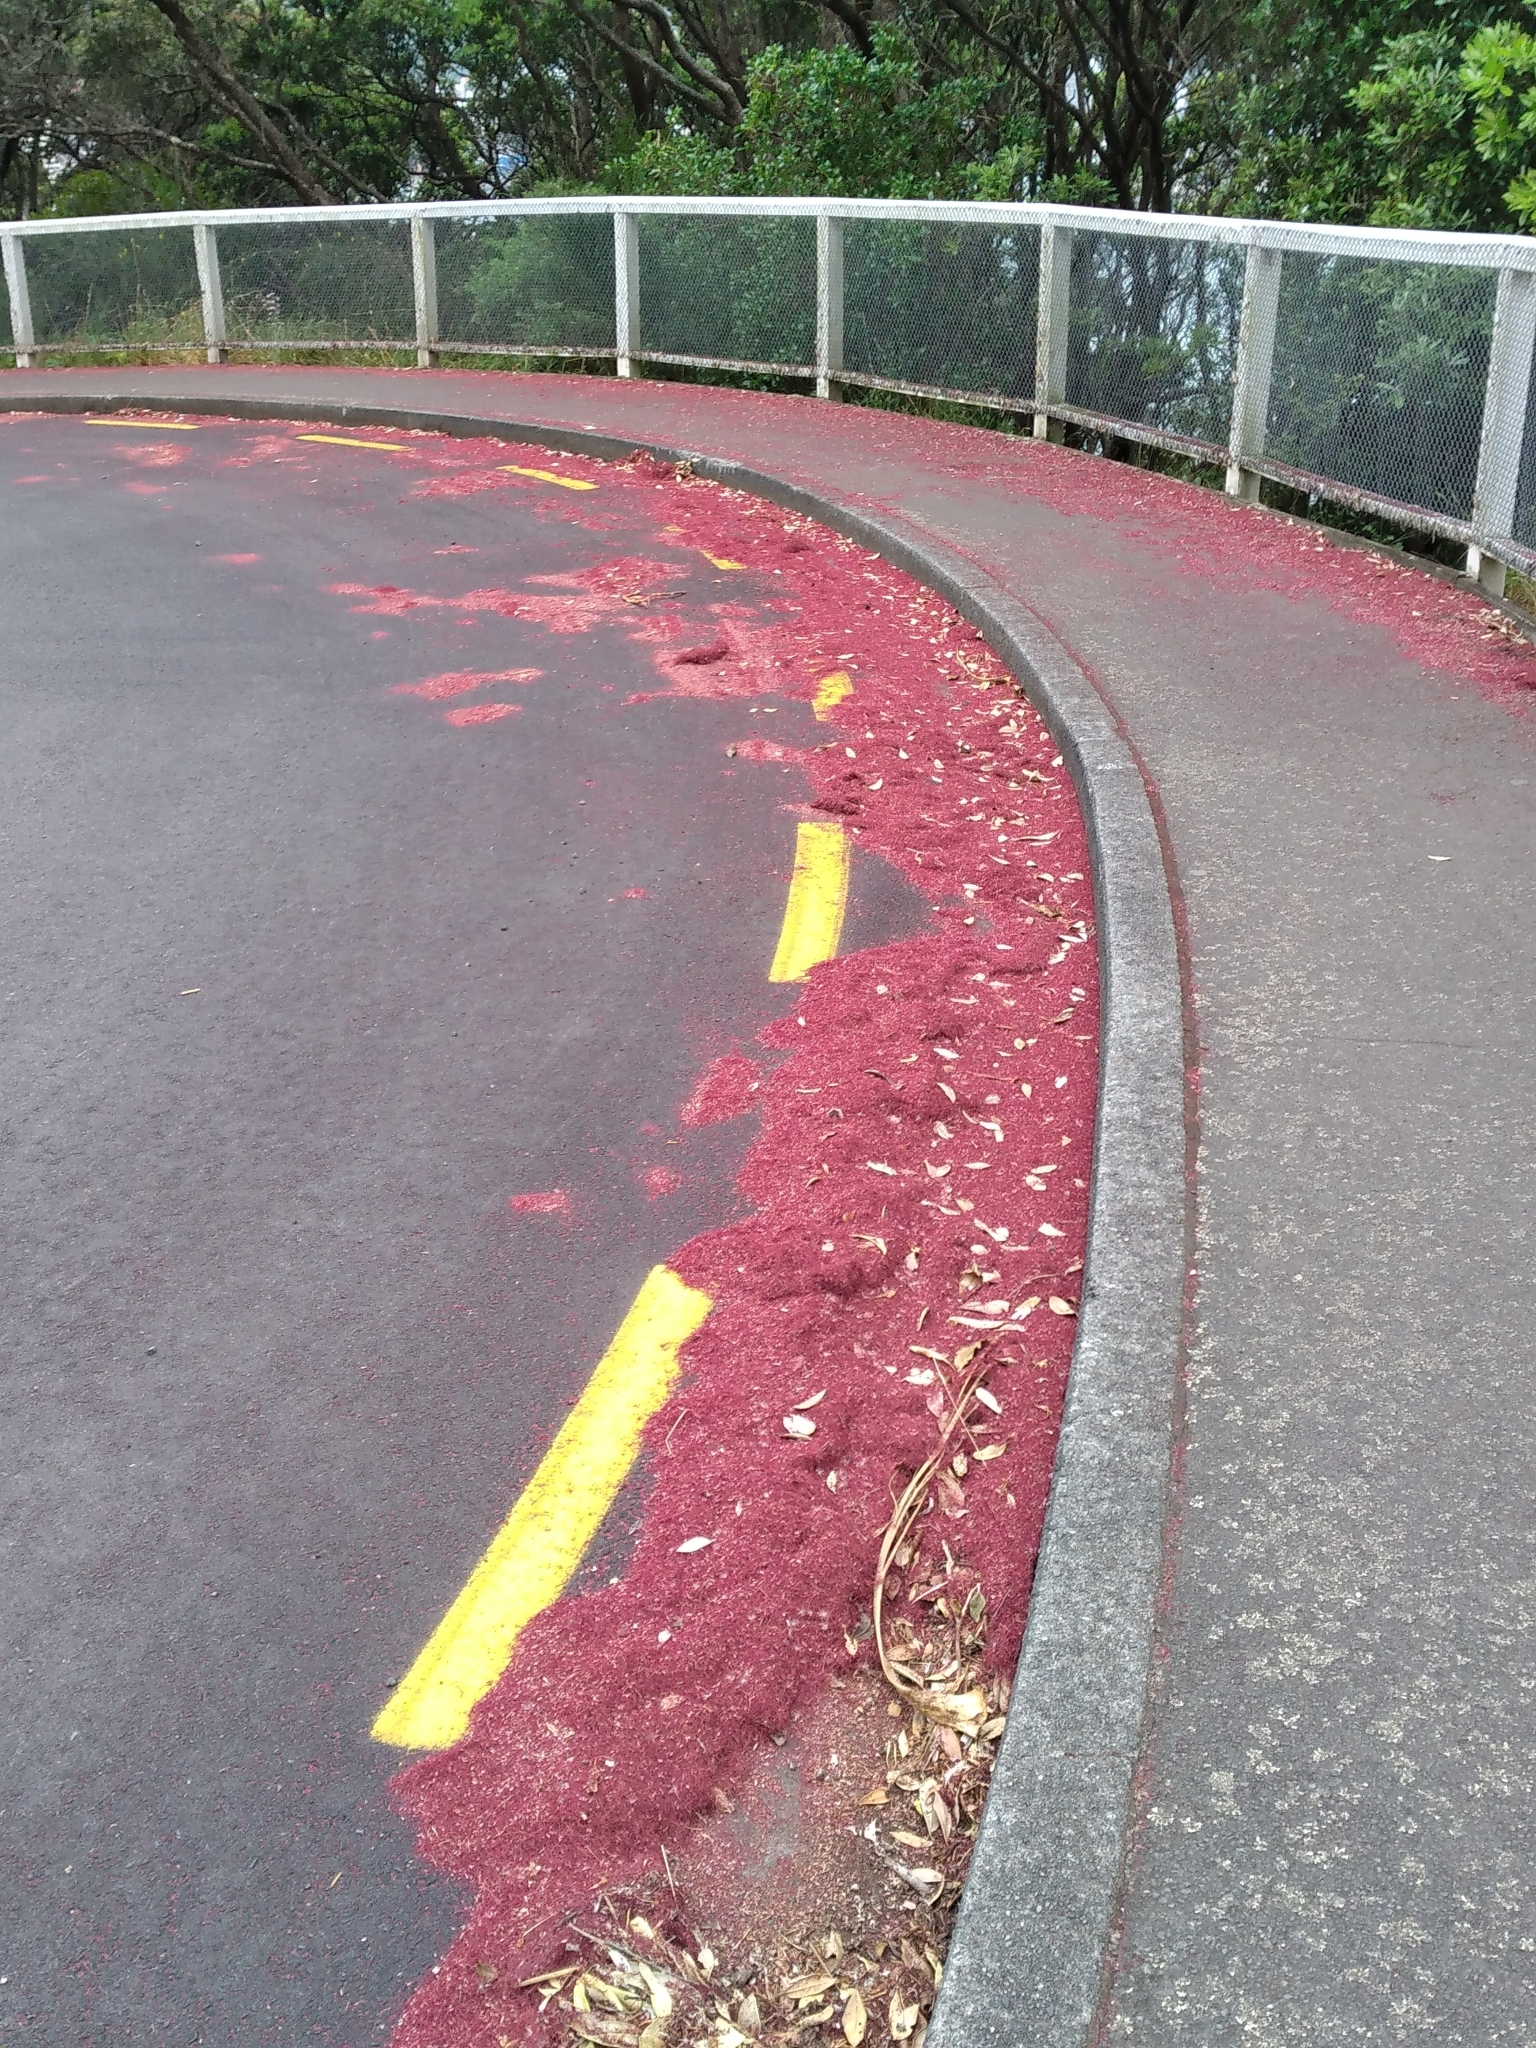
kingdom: Plantae
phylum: Tracheophyta
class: Magnoliopsida
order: Myrtales
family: Myrtaceae
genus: Metrosideros
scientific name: Metrosideros excelsa
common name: New zealand christmastree
